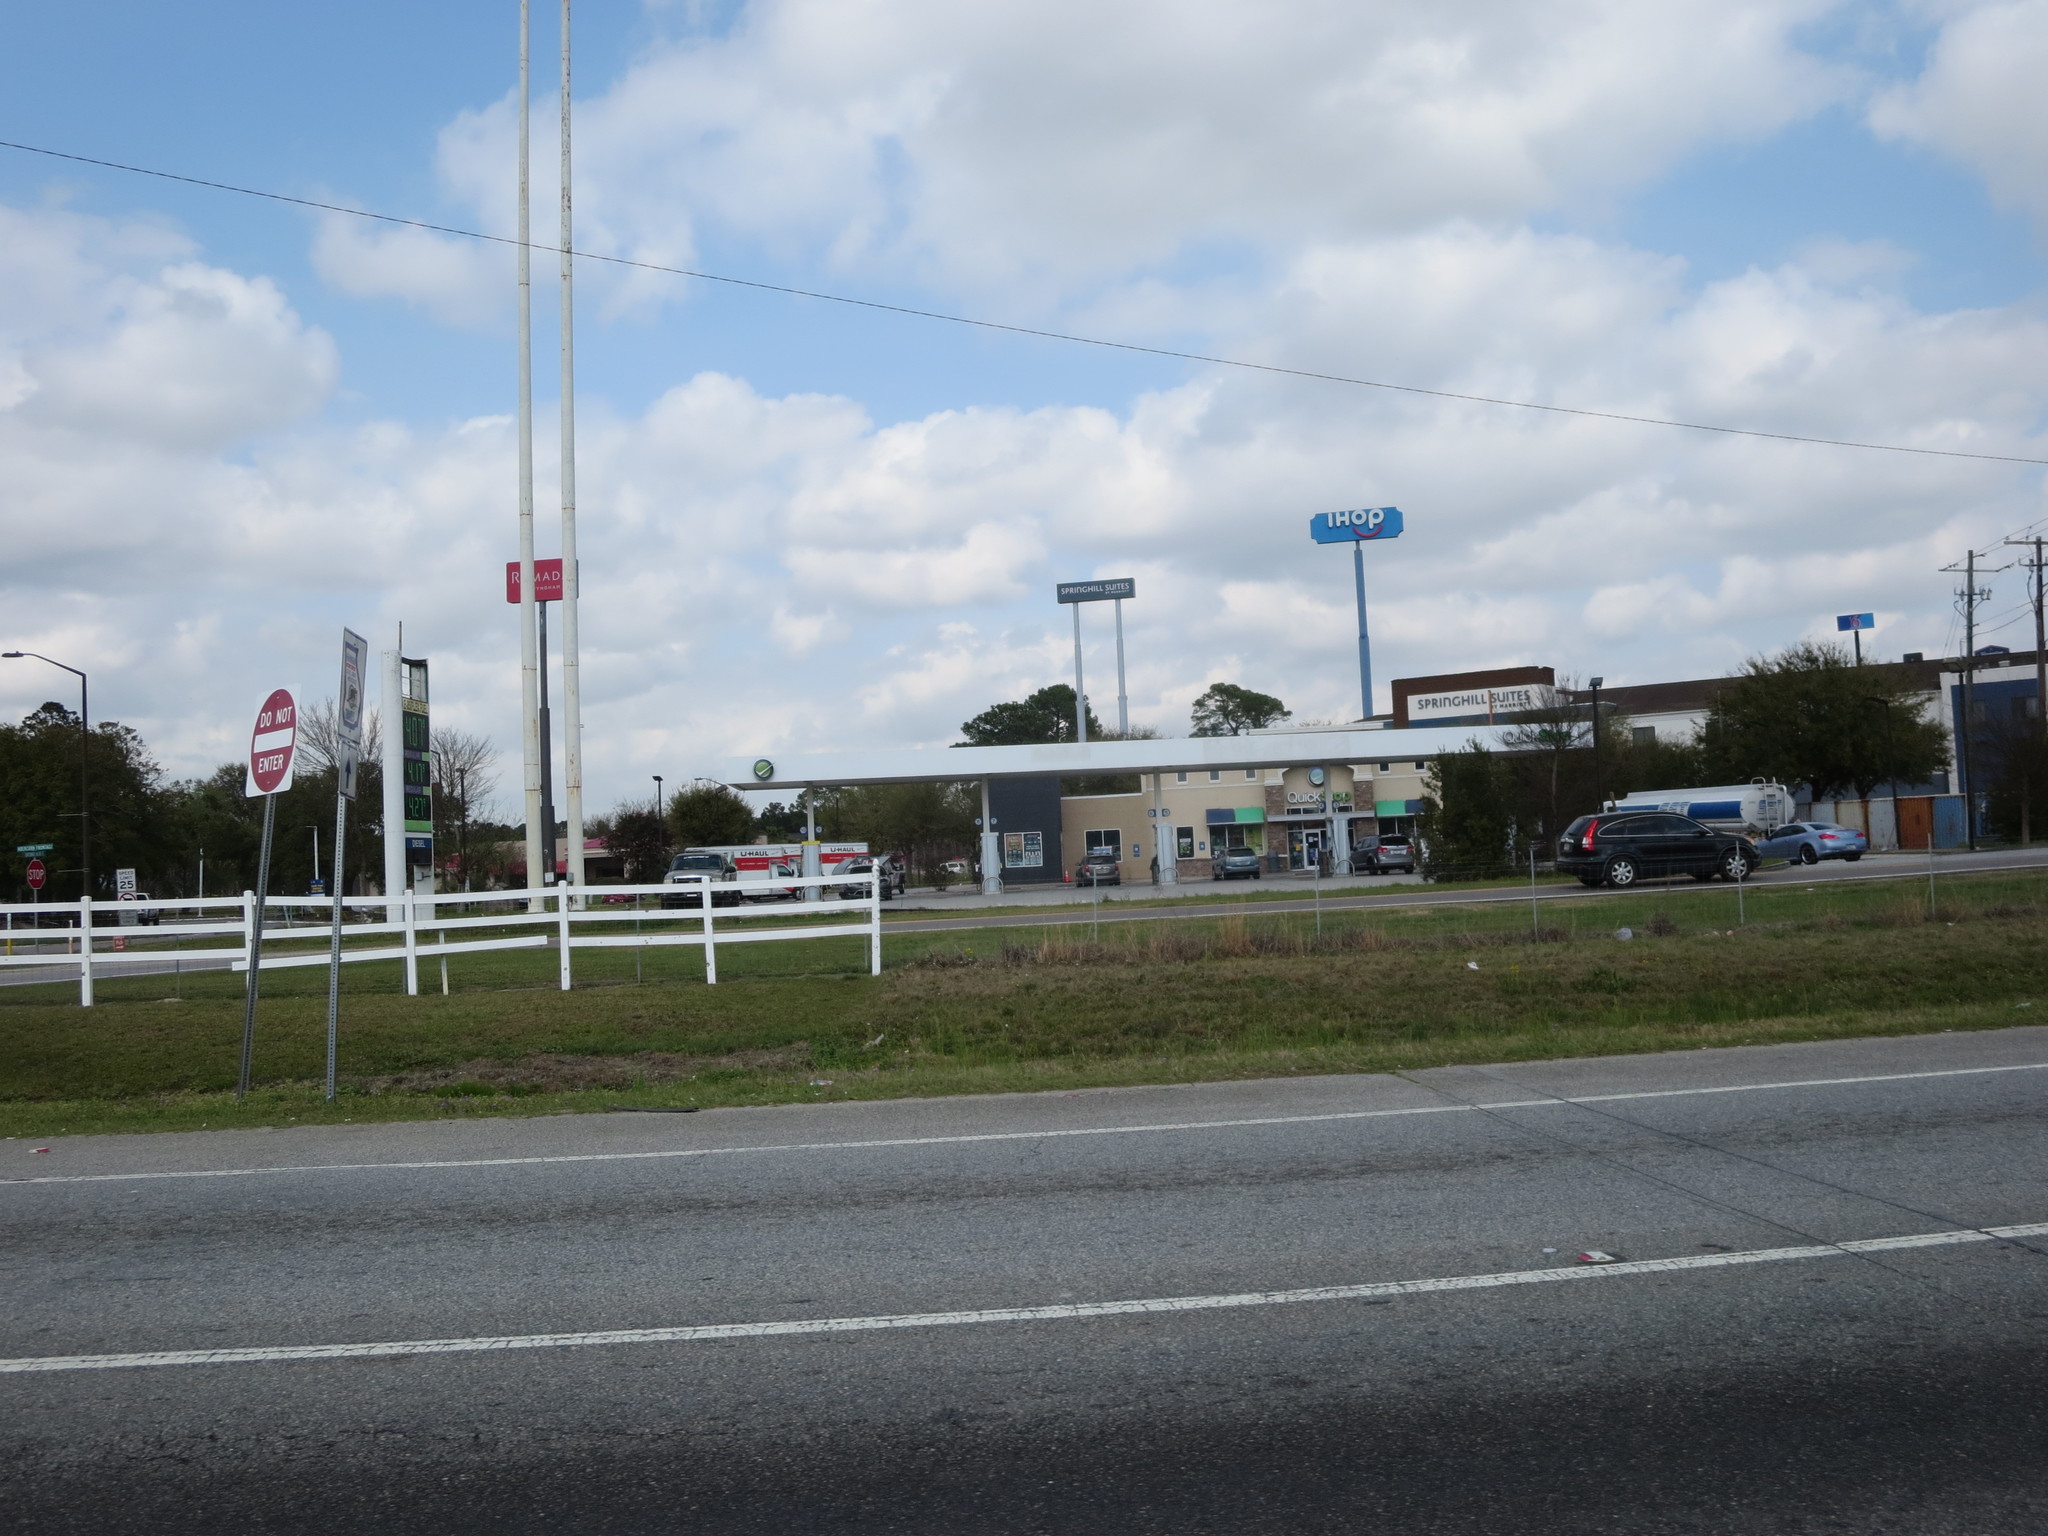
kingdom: Plantae
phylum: Tracheophyta
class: Magnoliopsida
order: Asterales
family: Asteraceae
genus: Packera
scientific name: Packera dubia
